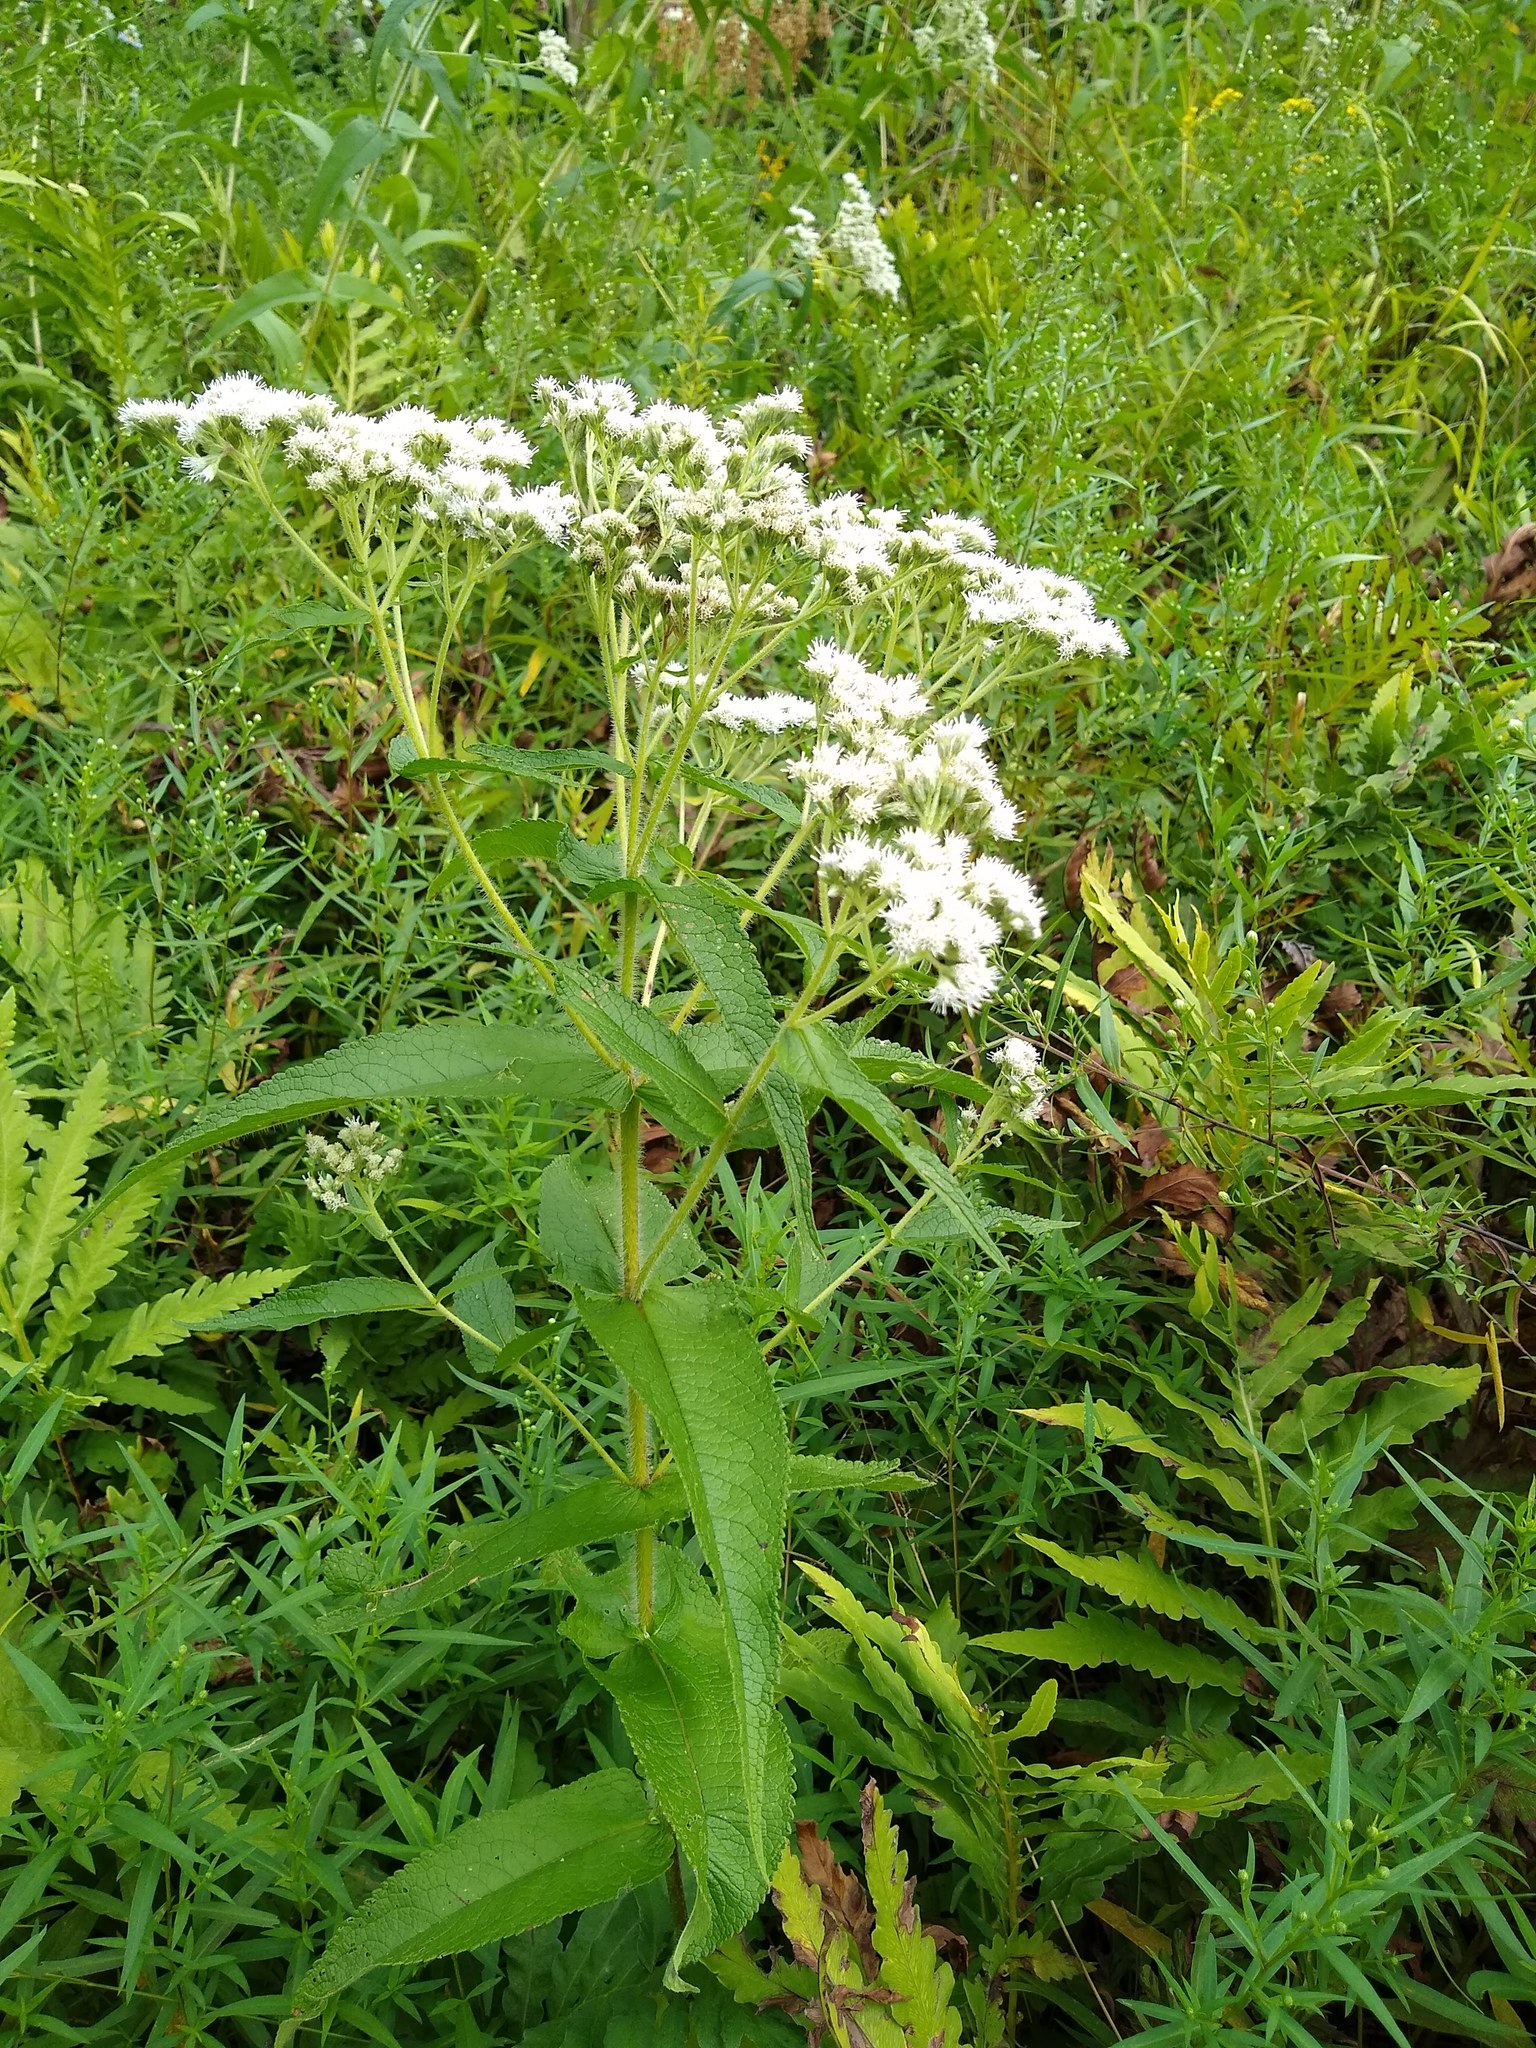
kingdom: Plantae
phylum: Tracheophyta
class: Magnoliopsida
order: Asterales
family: Asteraceae
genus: Eupatorium
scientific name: Eupatorium perfoliatum
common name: Boneset
